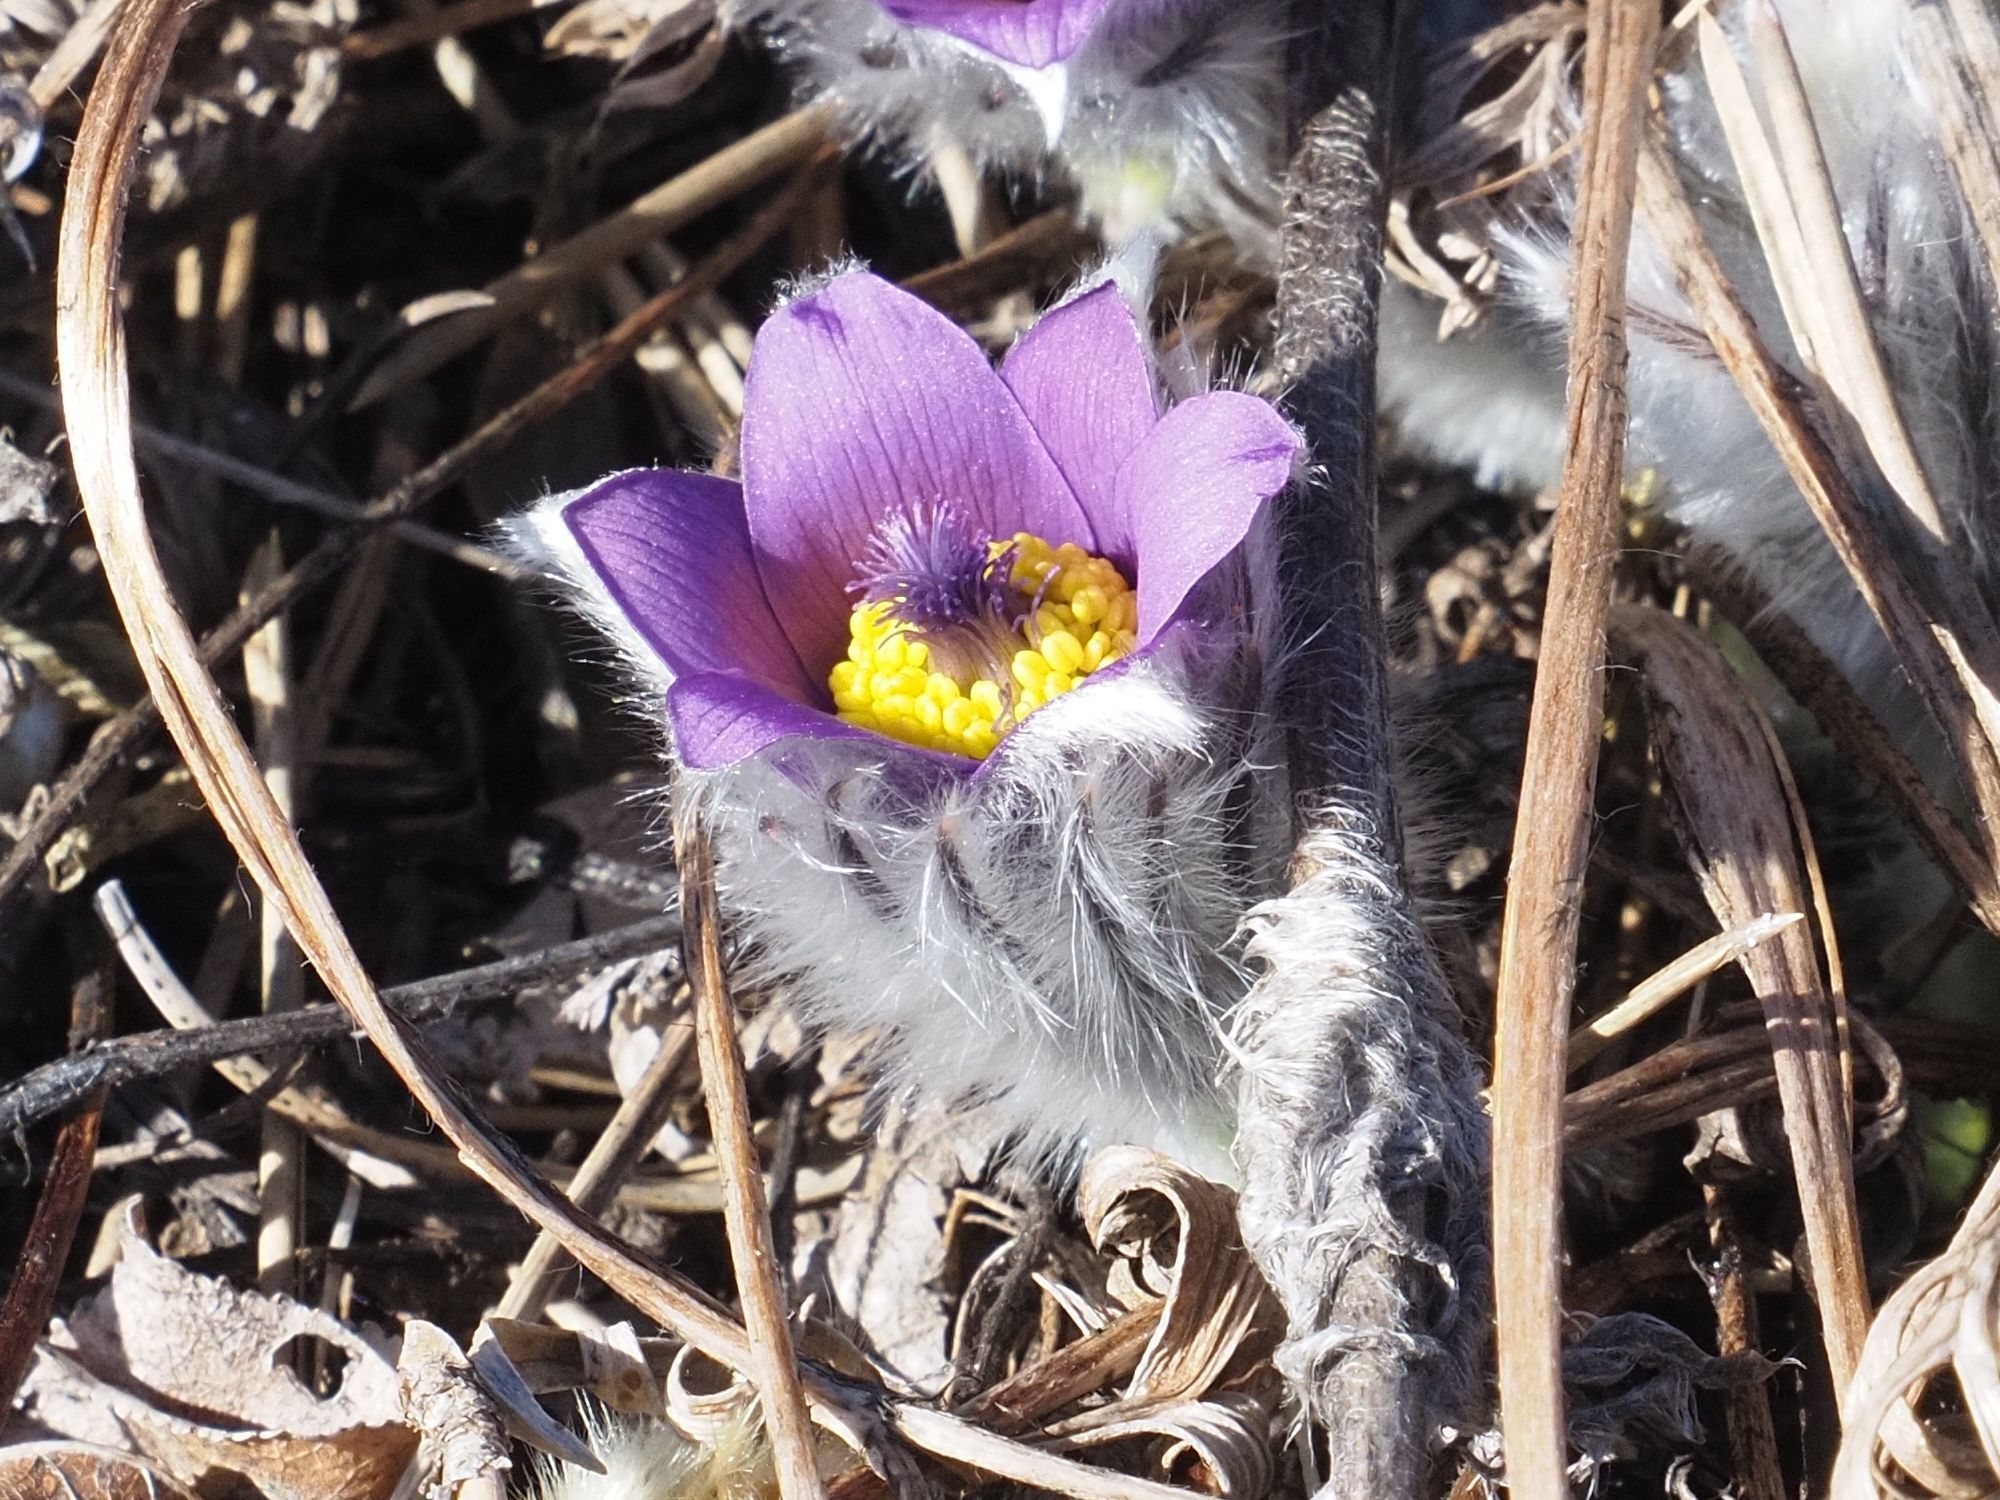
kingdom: Plantae
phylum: Tracheophyta
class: Magnoliopsida
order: Ranunculales
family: Ranunculaceae
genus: Pulsatilla
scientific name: Pulsatilla grandis
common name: Greater pasque flower
